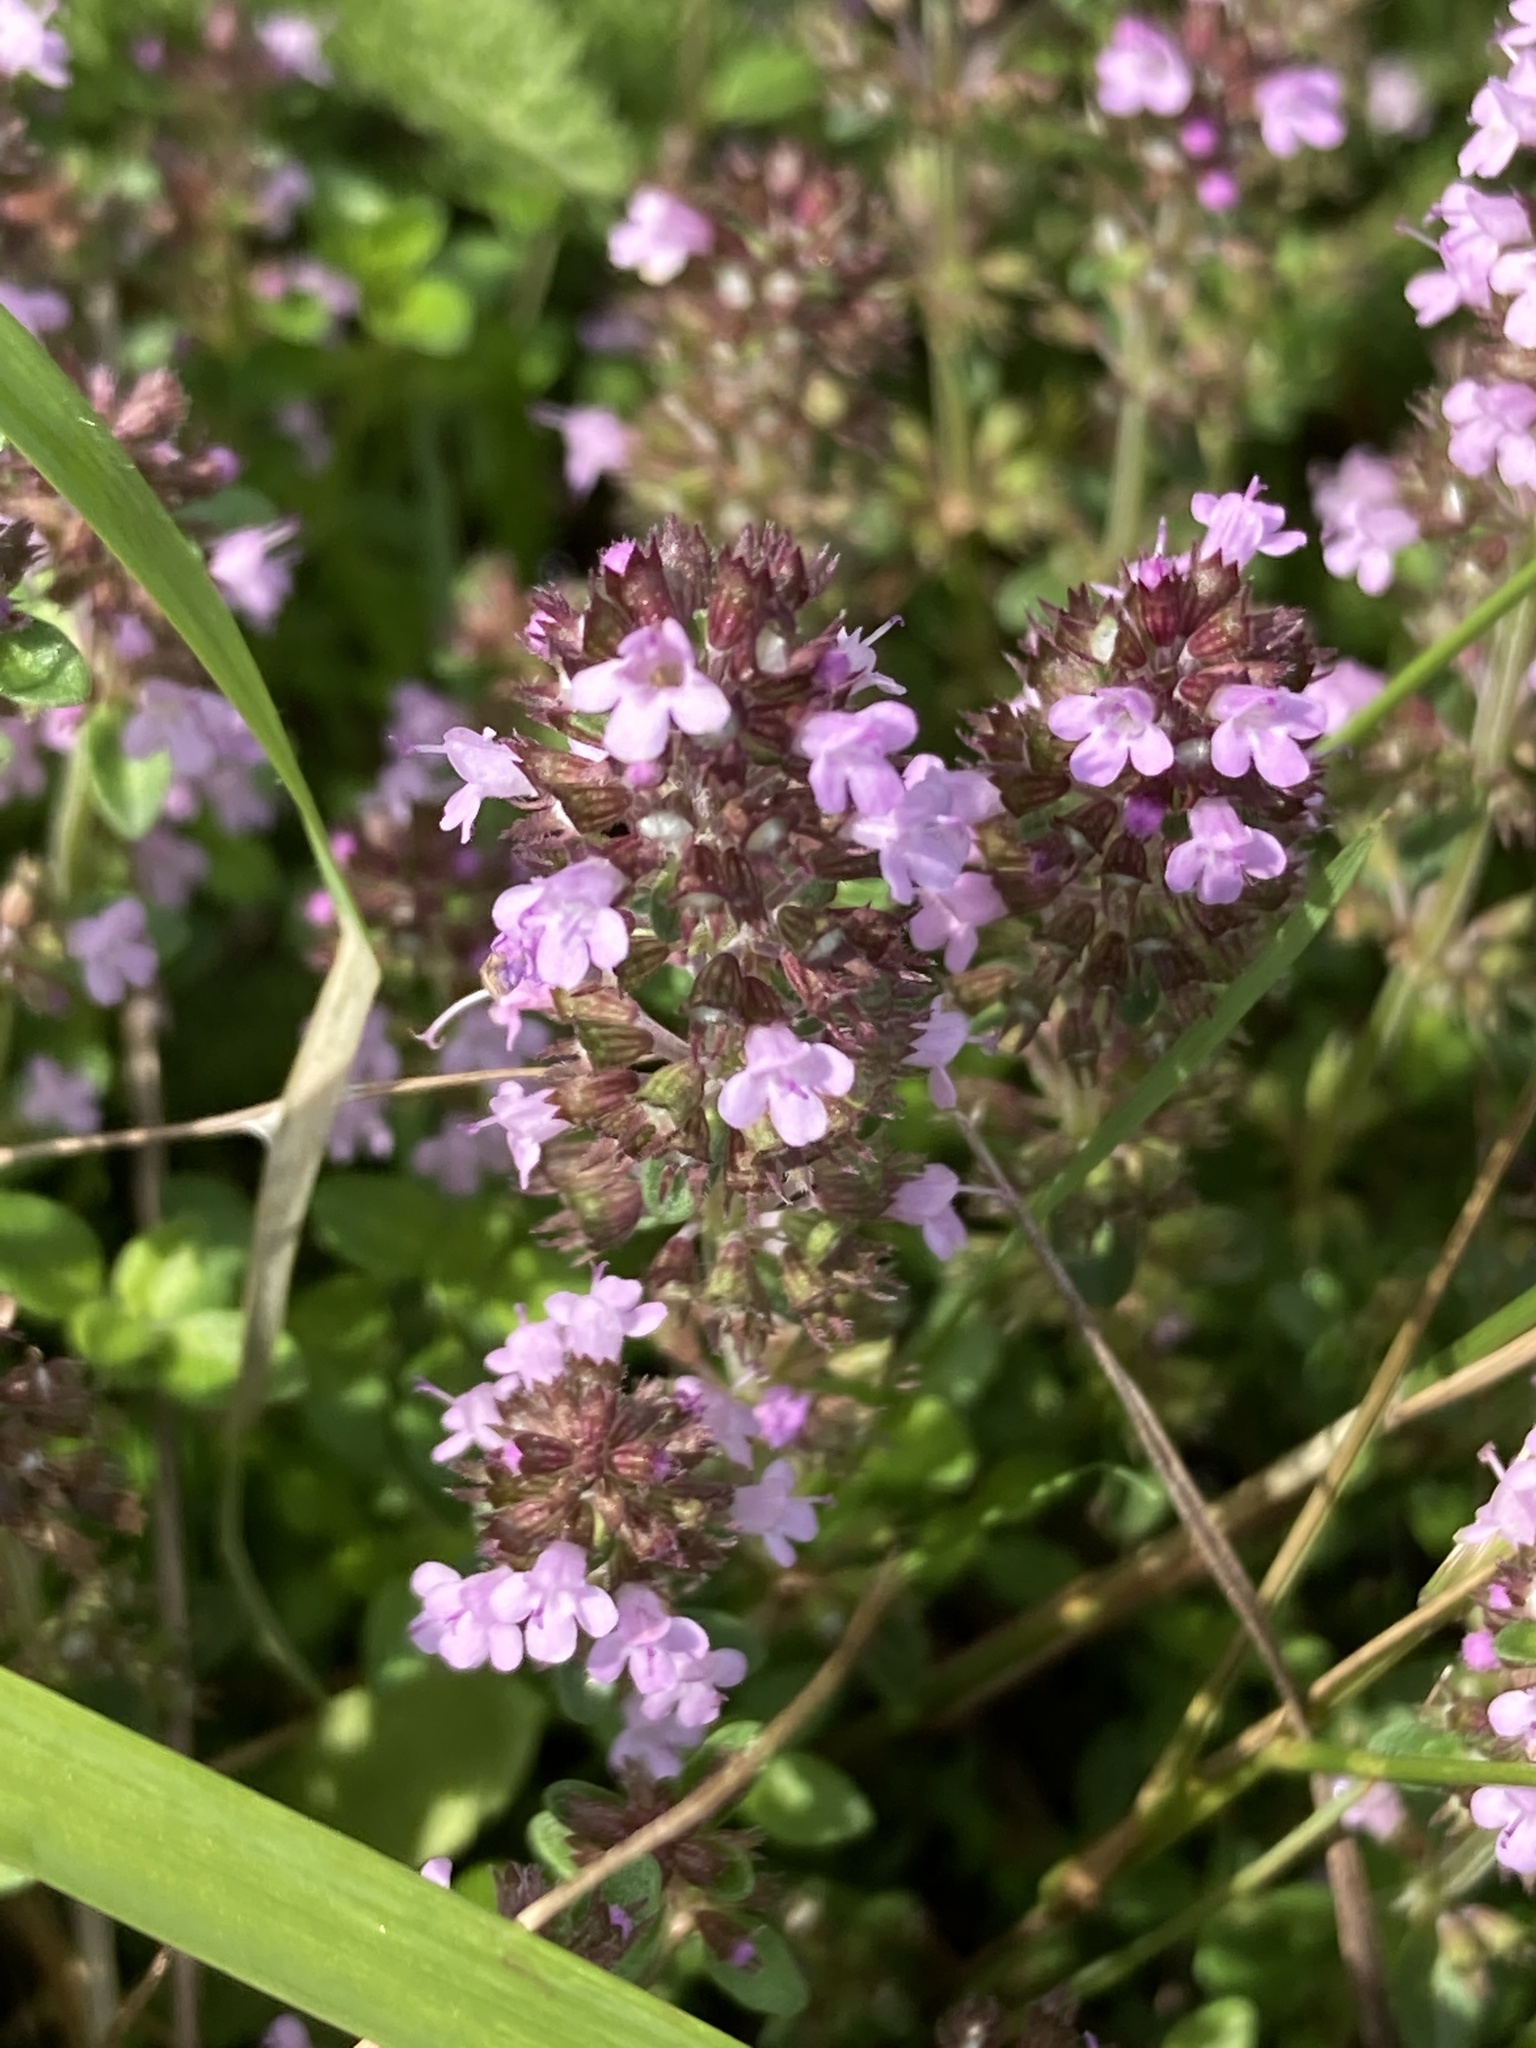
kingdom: Plantae
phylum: Tracheophyta
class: Magnoliopsida
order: Lamiales
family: Lamiaceae
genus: Thymus
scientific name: Thymus pulegioides
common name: Large thyme
